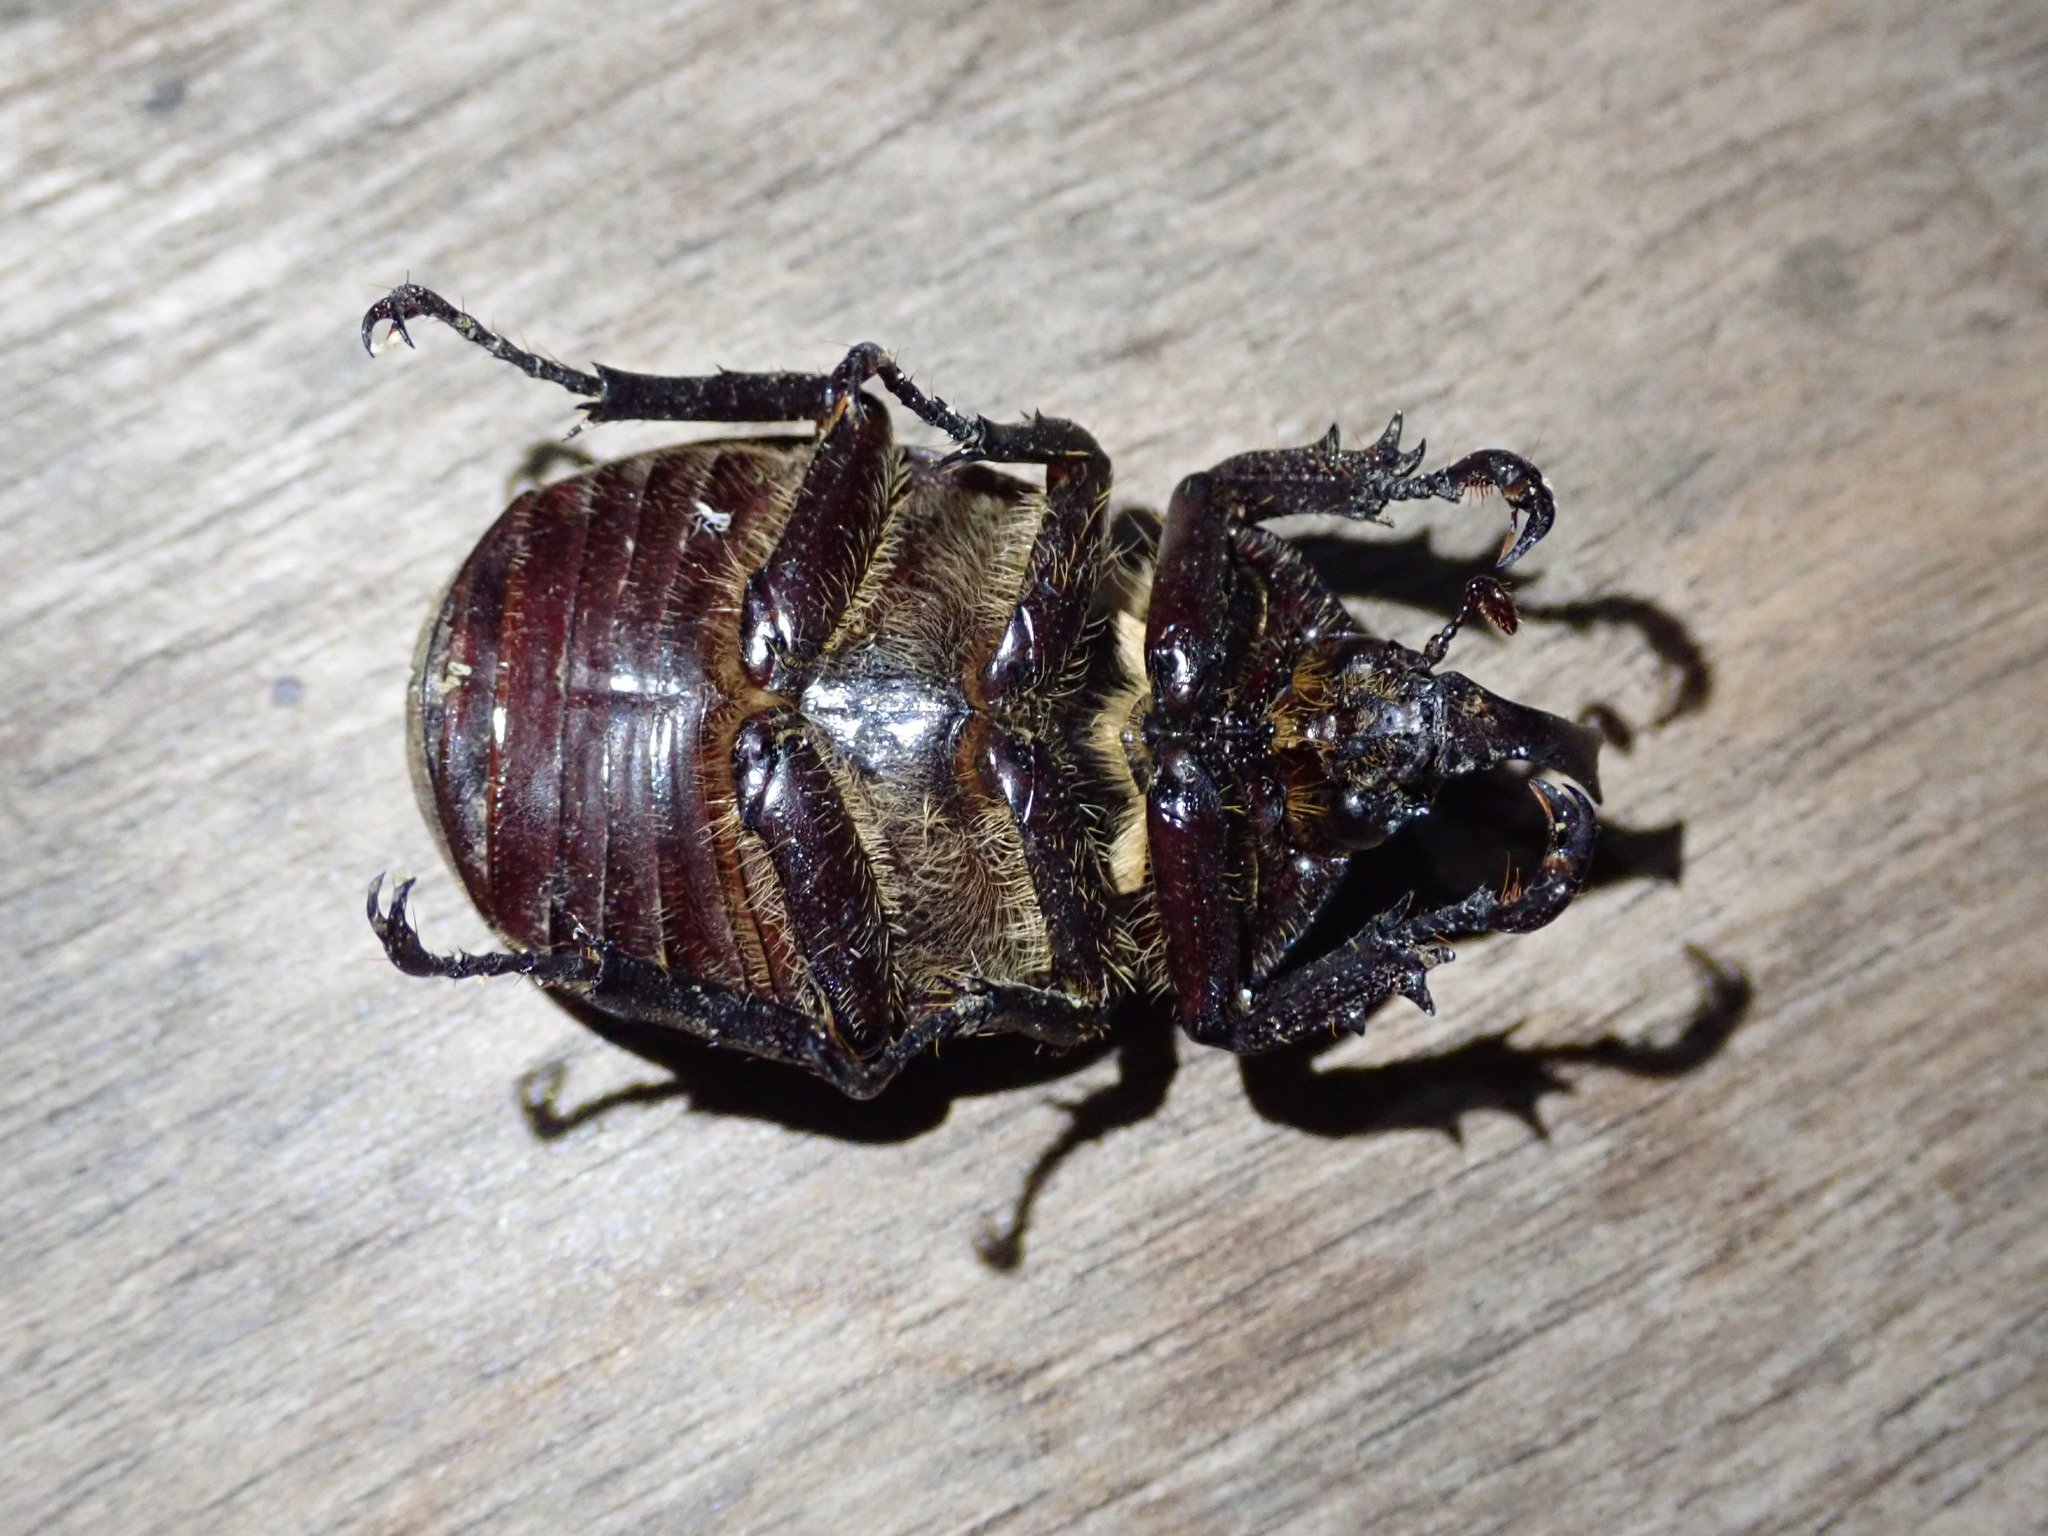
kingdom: Animalia
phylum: Arthropoda
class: Insecta
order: Coleoptera
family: Scarabaeidae
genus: Lycomedes
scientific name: Lycomedes buckleyi
